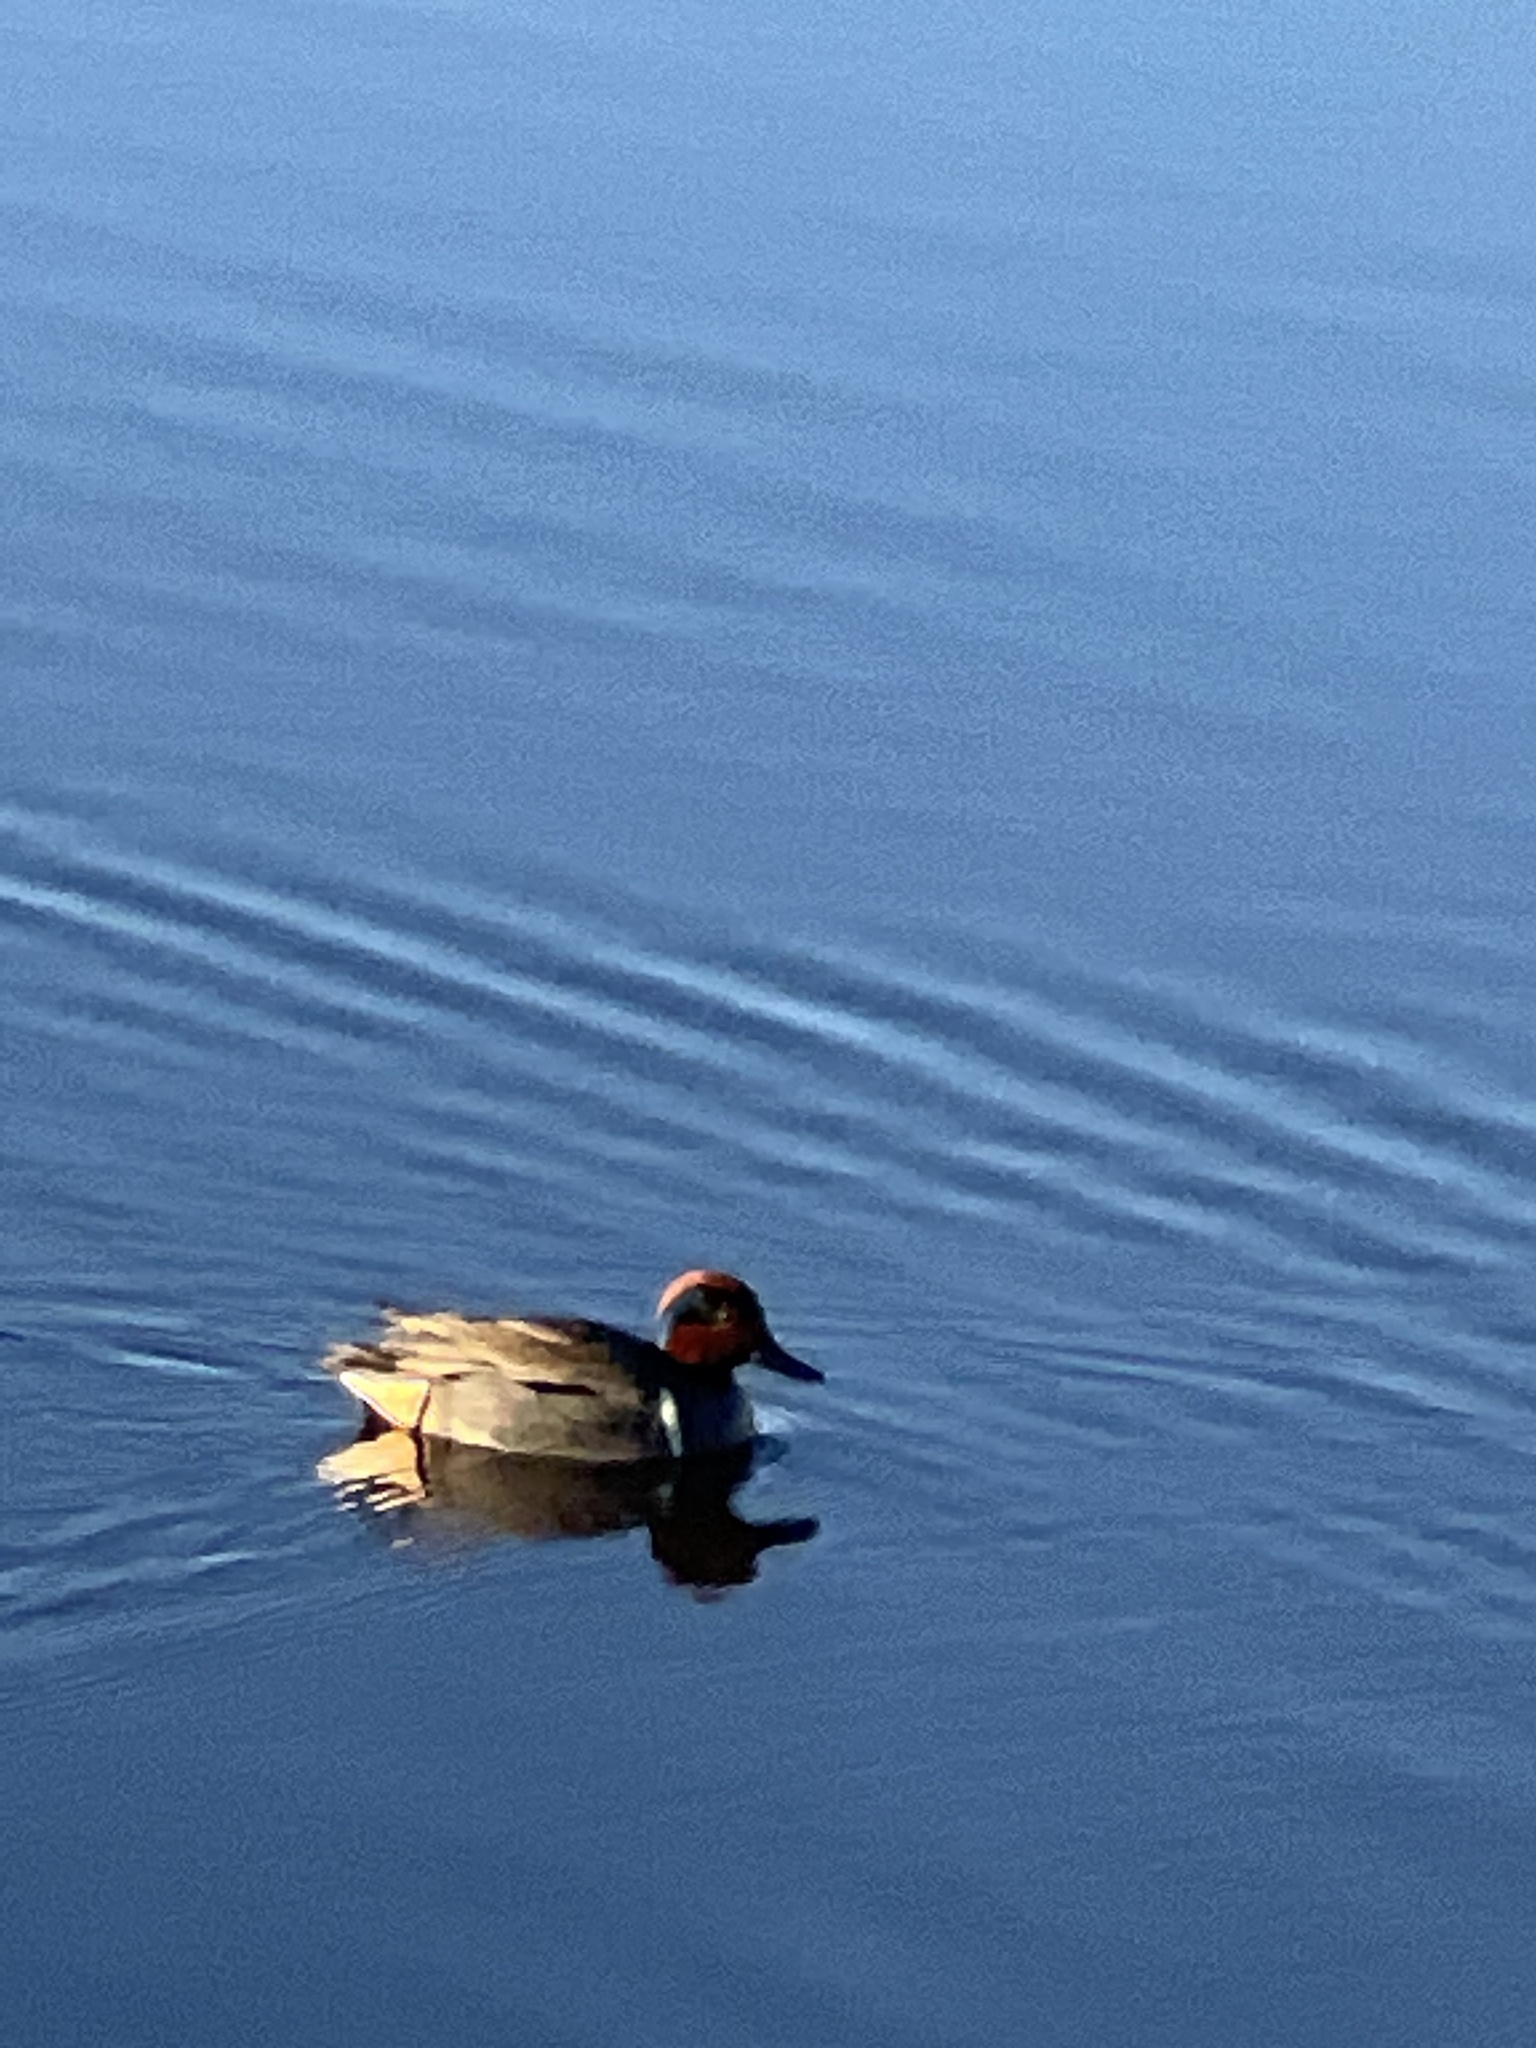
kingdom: Animalia
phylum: Chordata
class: Aves
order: Anseriformes
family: Anatidae
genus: Anas
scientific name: Anas carolinensis
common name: Green-winged teal
